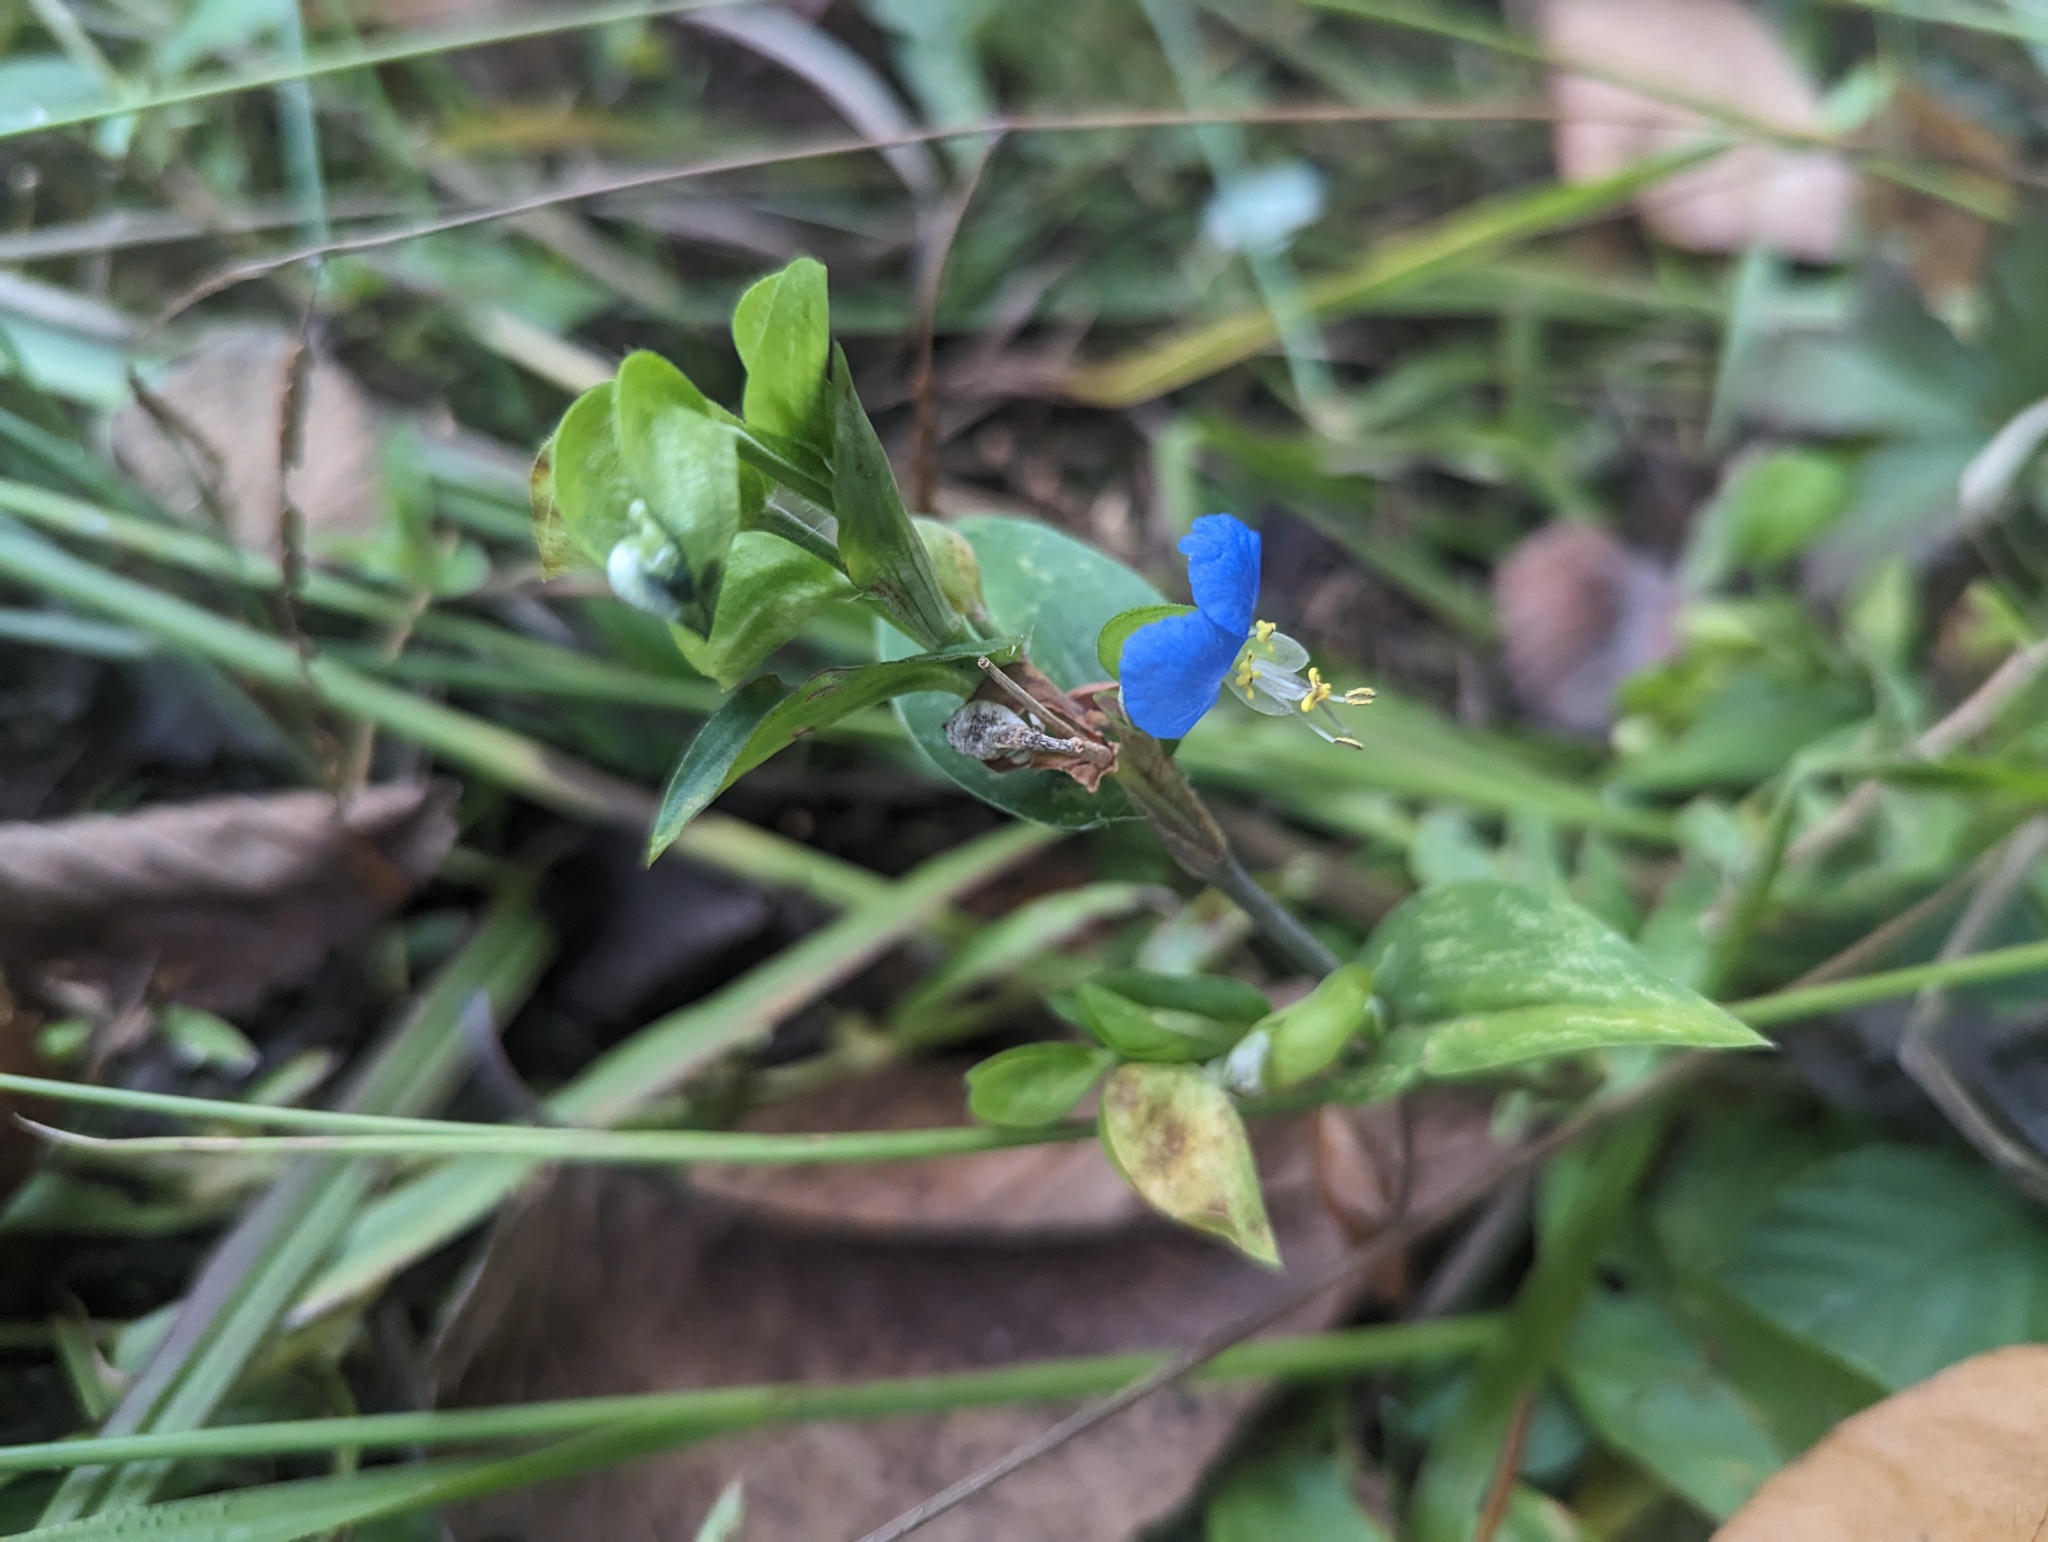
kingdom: Plantae
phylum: Tracheophyta
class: Liliopsida
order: Commelinales
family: Commelinaceae
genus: Commelina
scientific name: Commelina communis
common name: Asiatic dayflower
